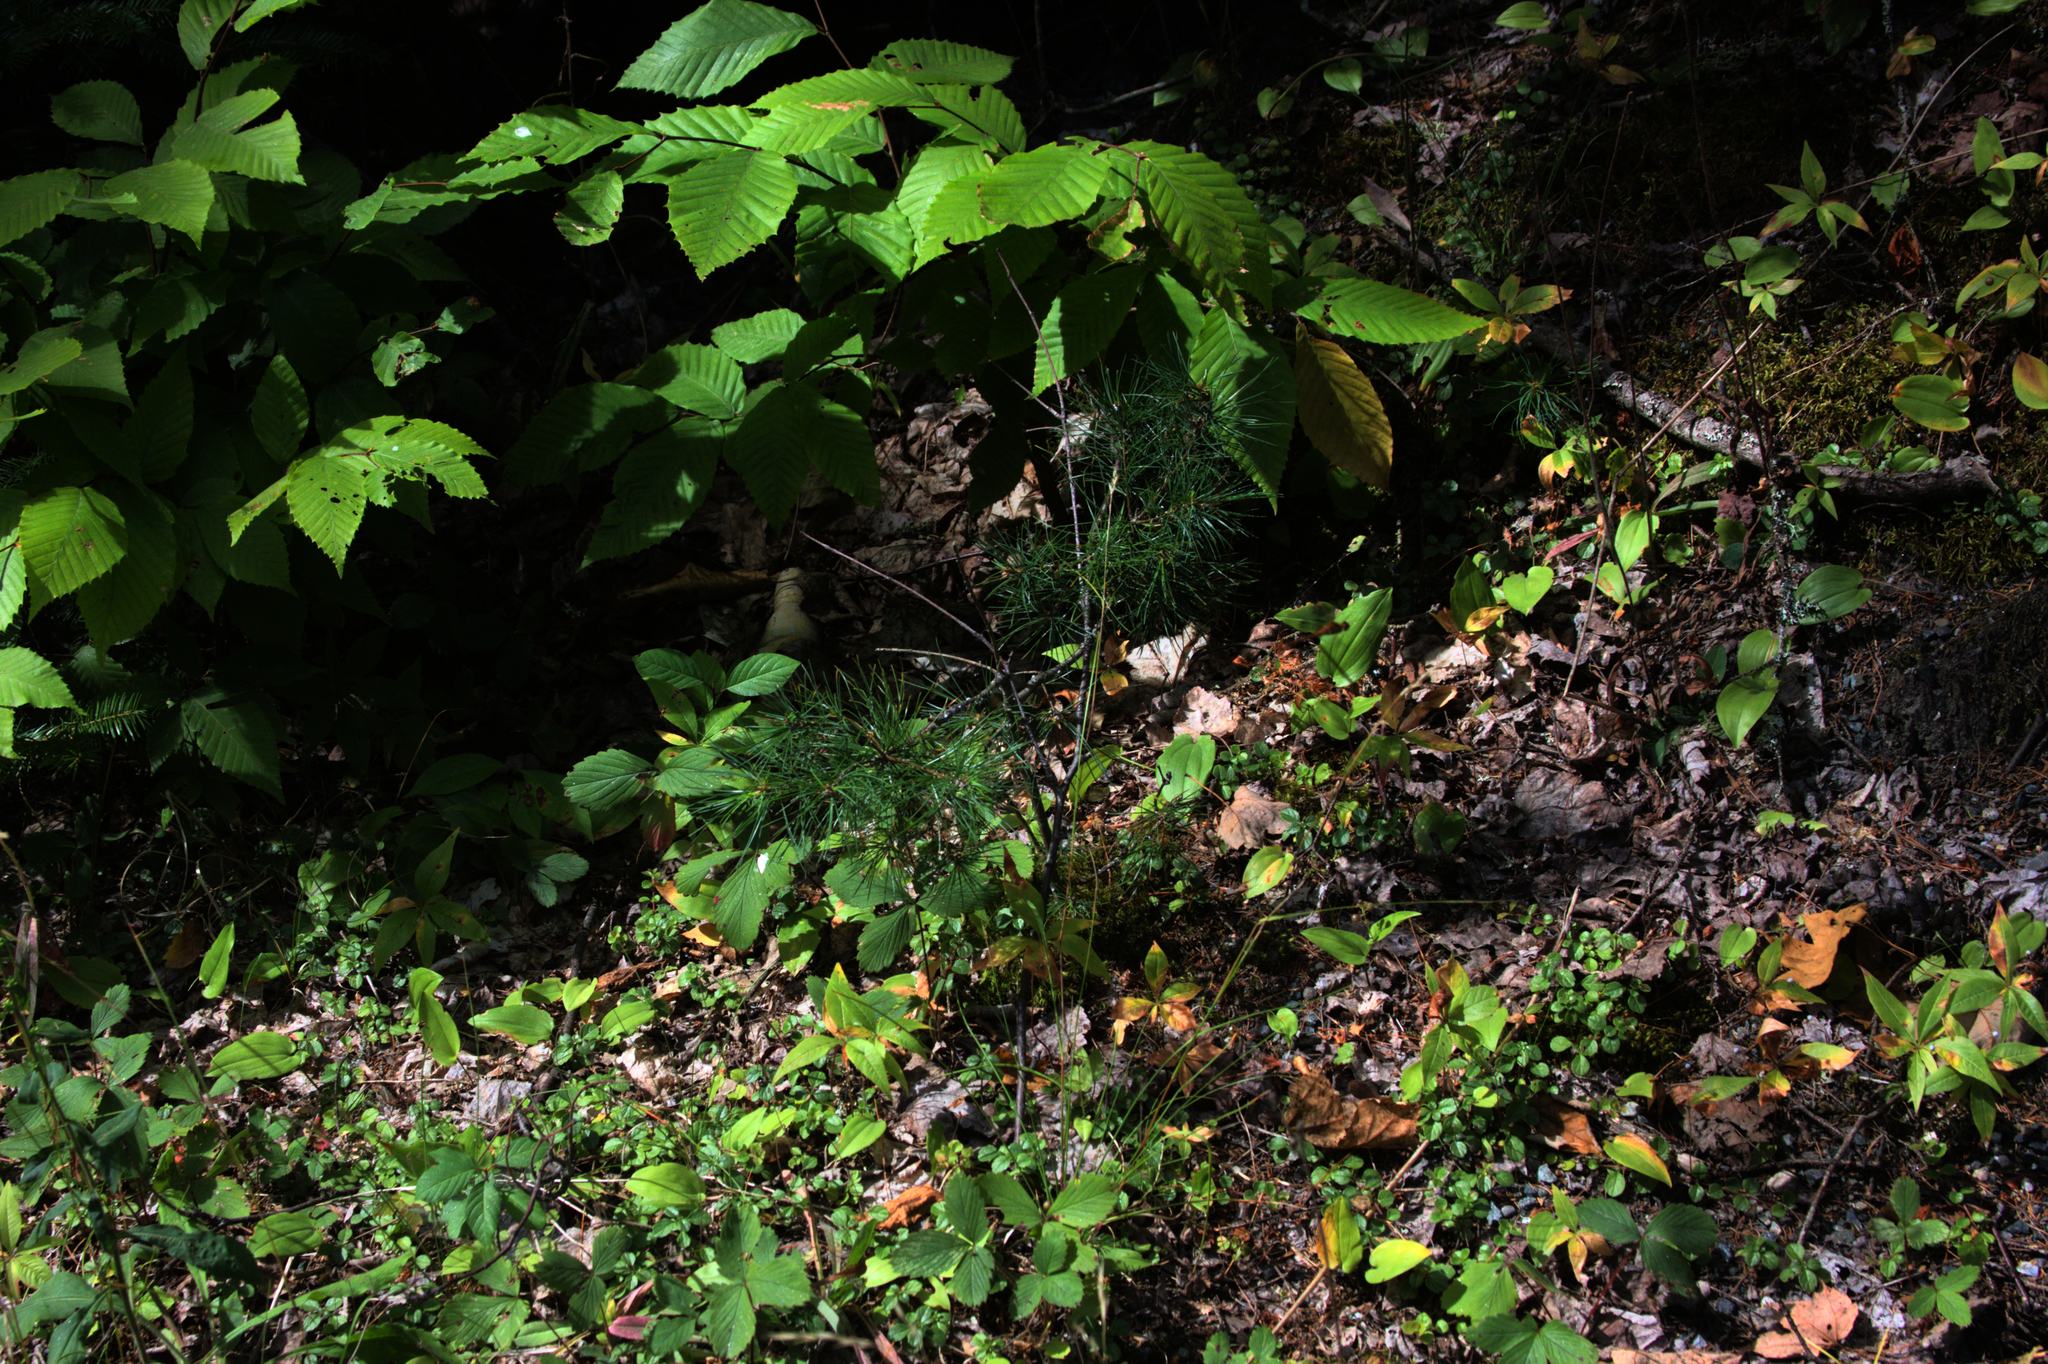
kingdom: Plantae
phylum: Tracheophyta
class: Pinopsida
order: Pinales
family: Pinaceae
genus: Pinus
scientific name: Pinus strobus
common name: Weymouth pine
